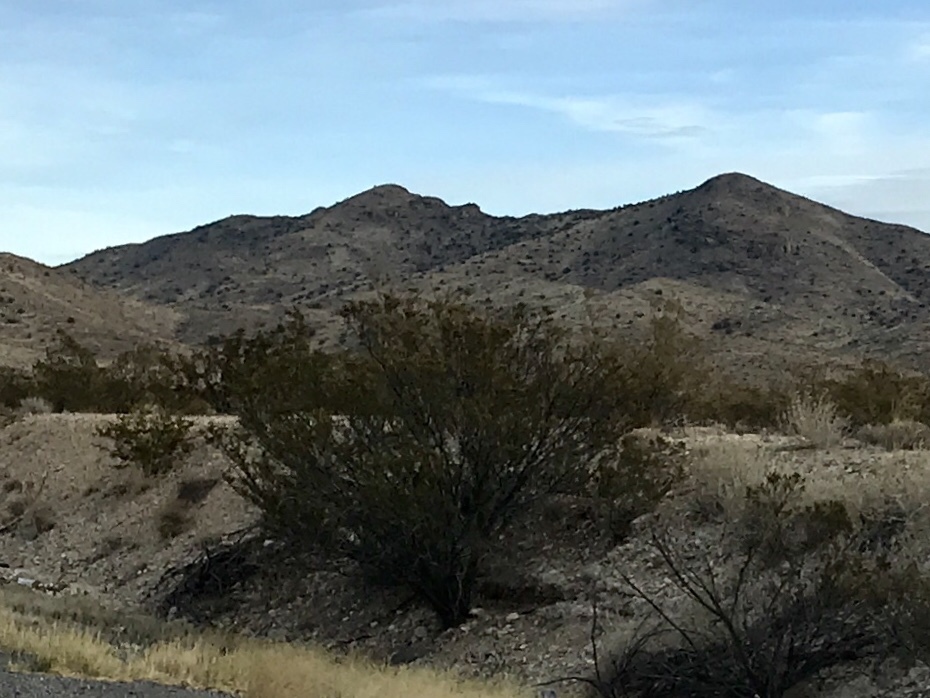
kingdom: Plantae
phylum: Tracheophyta
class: Magnoliopsida
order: Zygophyllales
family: Zygophyllaceae
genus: Larrea
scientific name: Larrea tridentata
